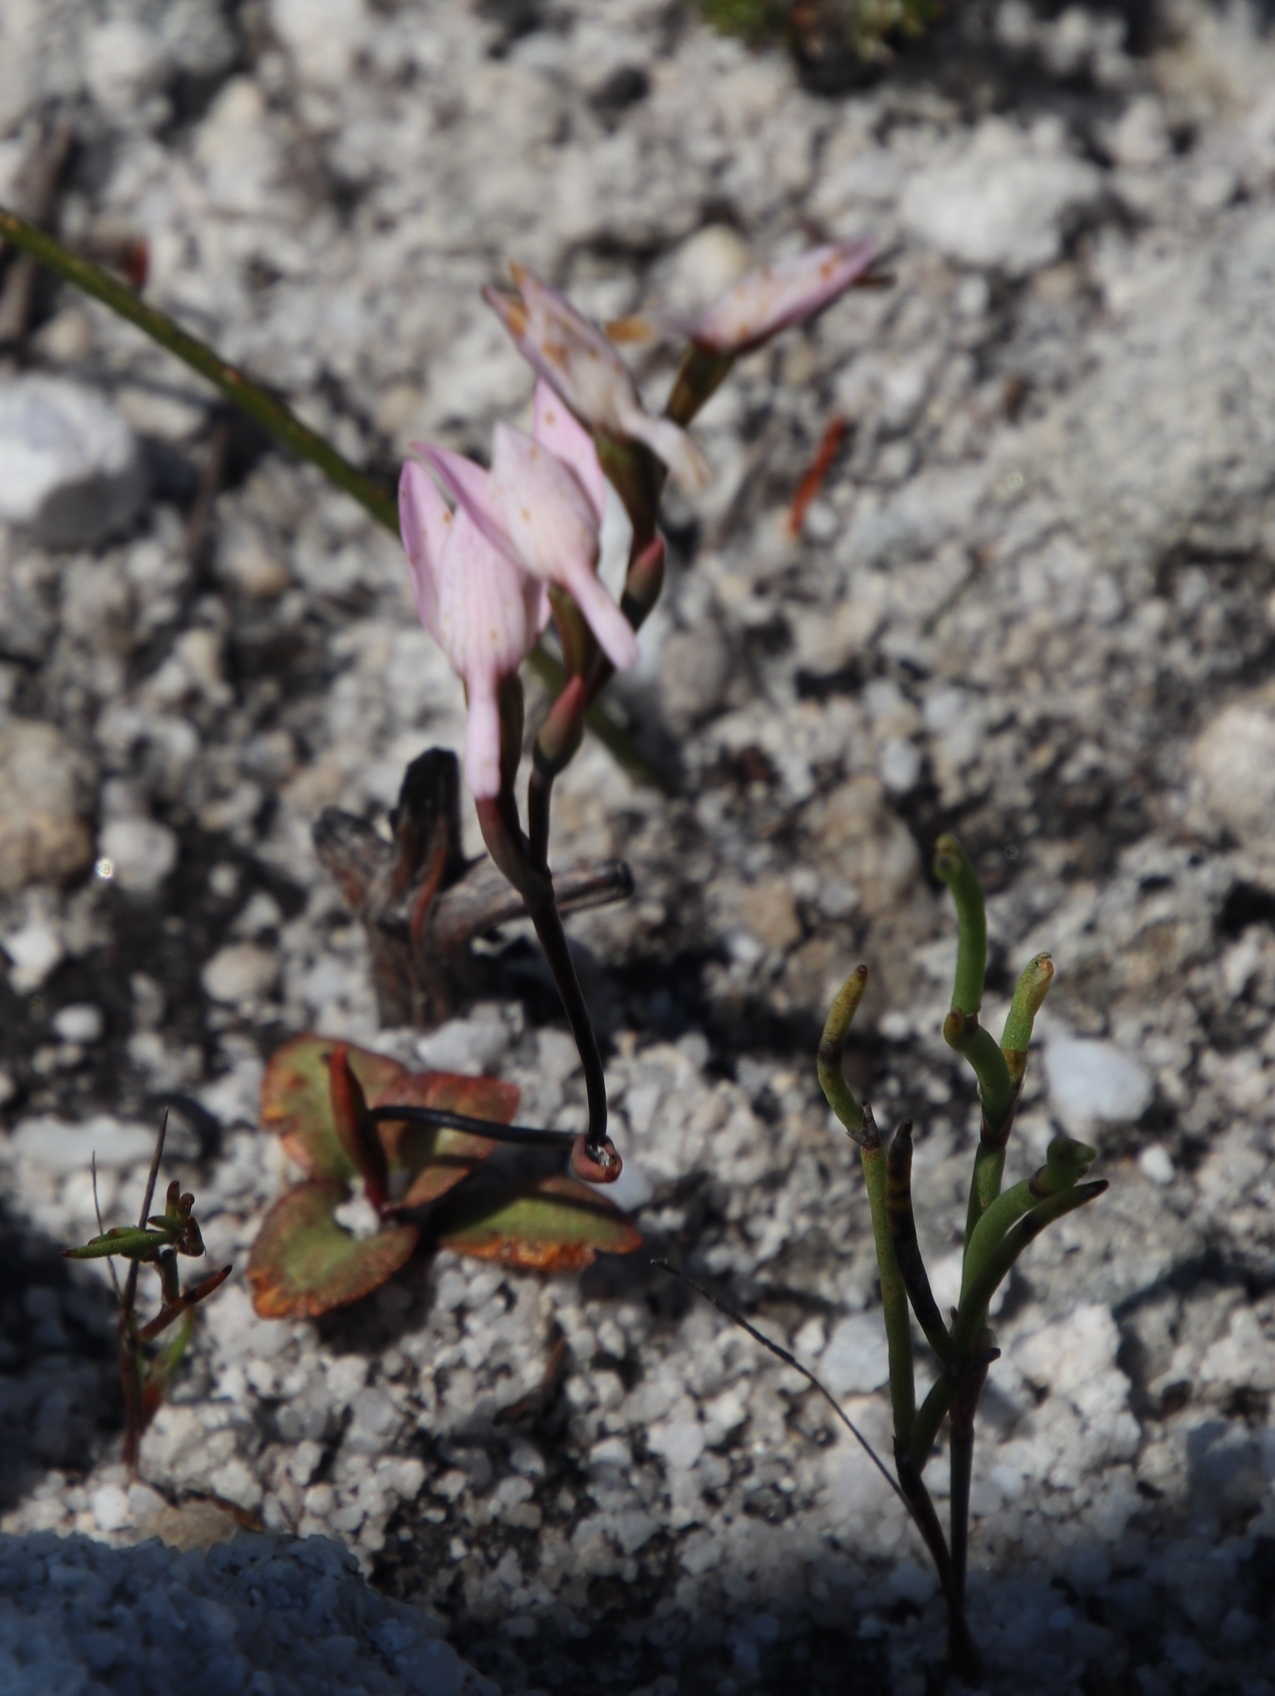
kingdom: Plantae
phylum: Tracheophyta
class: Liliopsida
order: Asparagales
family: Orchidaceae
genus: Disa
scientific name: Disa obliqua
